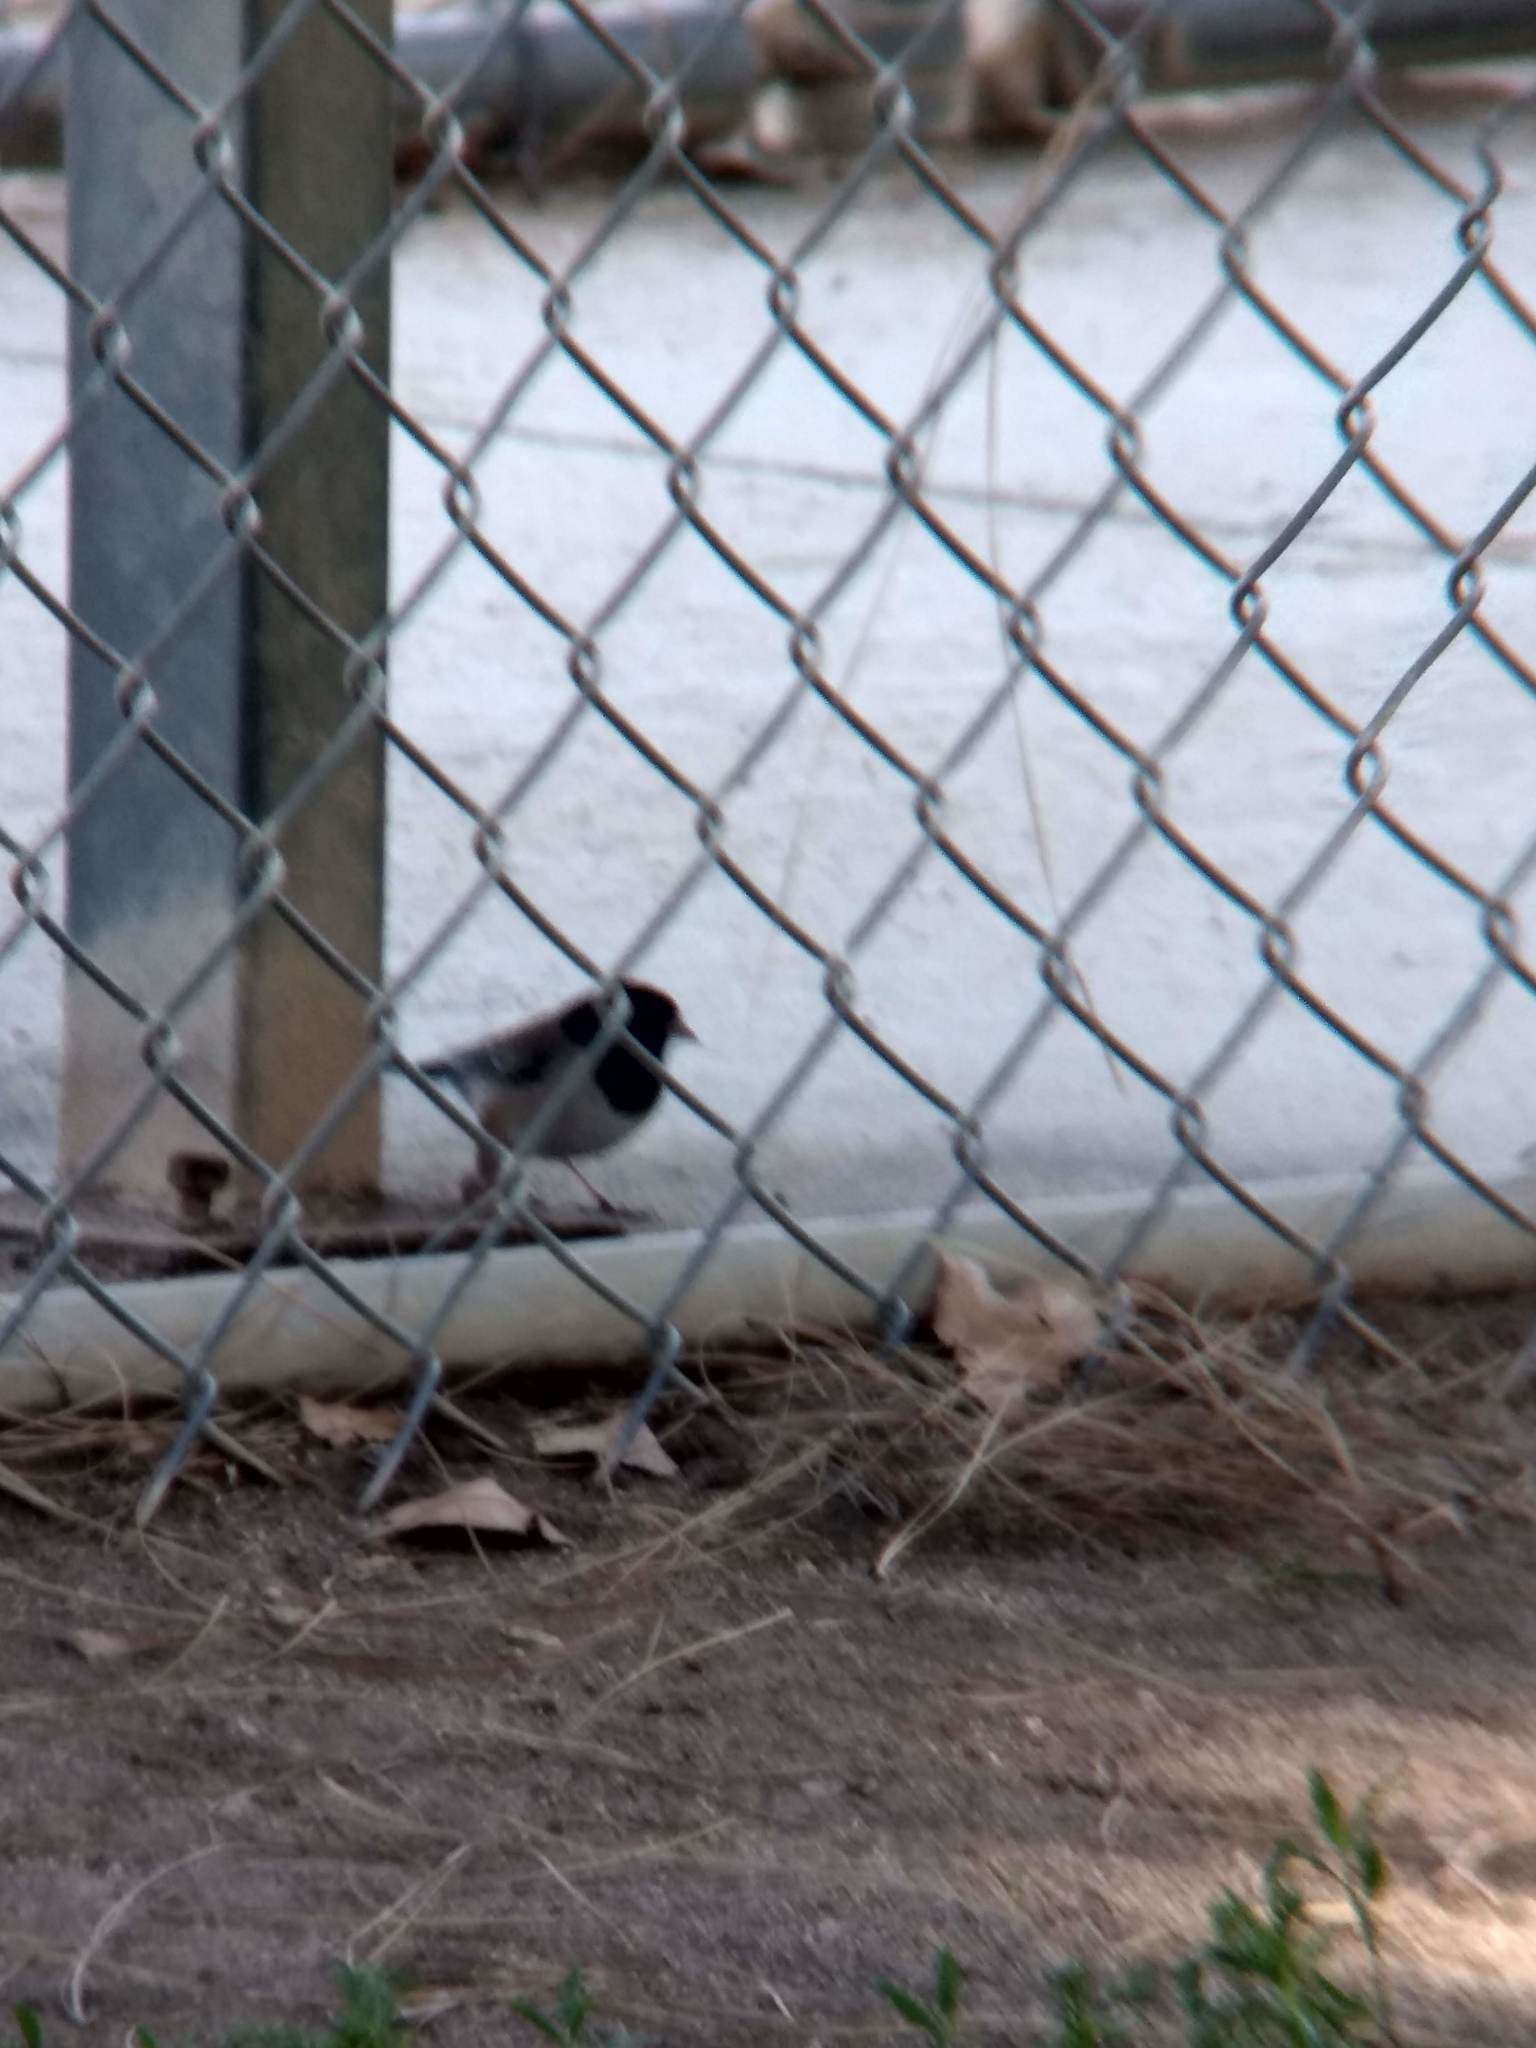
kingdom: Animalia
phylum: Chordata
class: Aves
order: Passeriformes
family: Passerellidae
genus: Junco
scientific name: Junco hyemalis
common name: Dark-eyed junco
